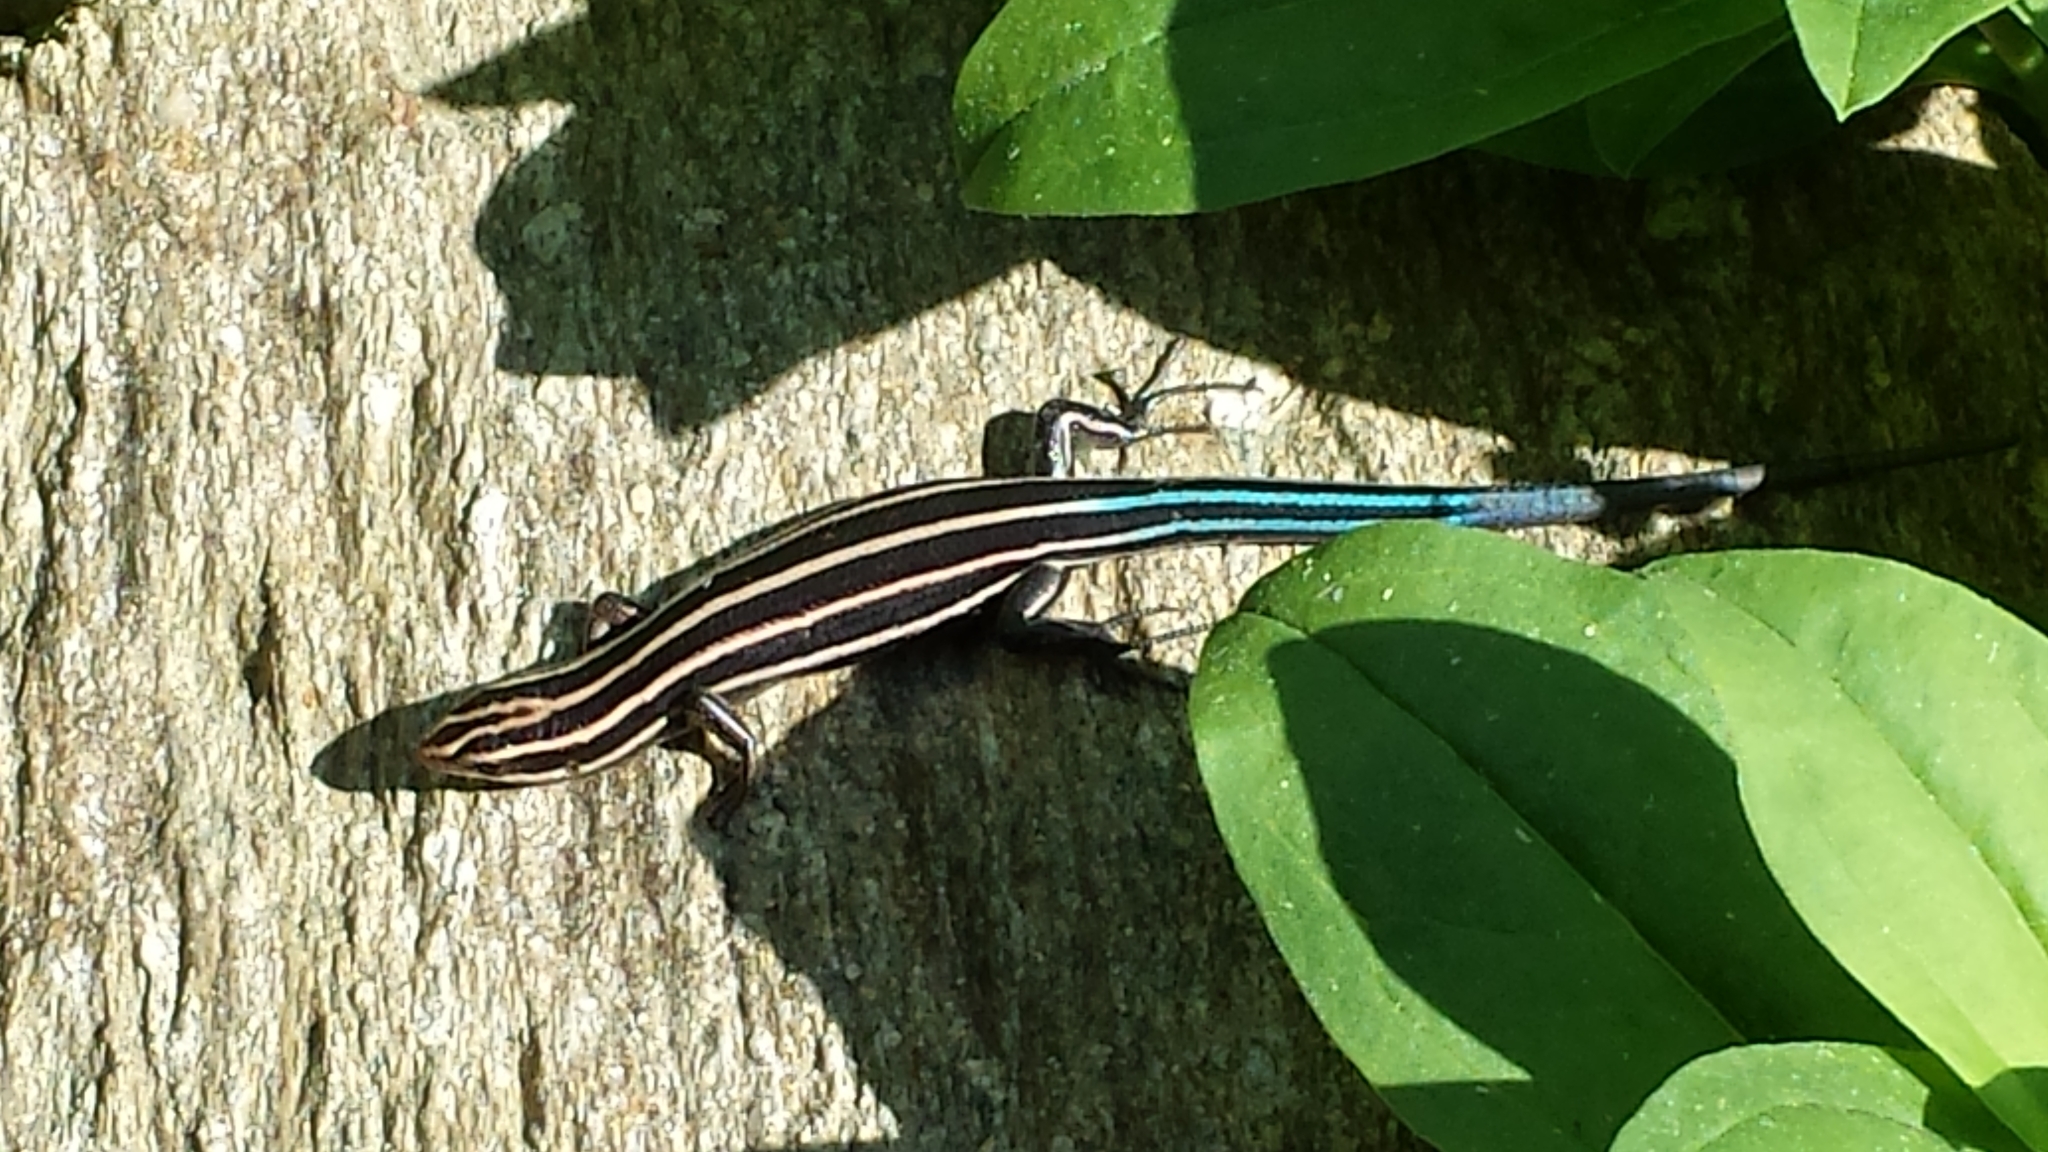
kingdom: Animalia
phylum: Chordata
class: Squamata
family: Scincidae
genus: Plestiodon
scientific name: Plestiodon fasciatus
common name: Five-lined skink
